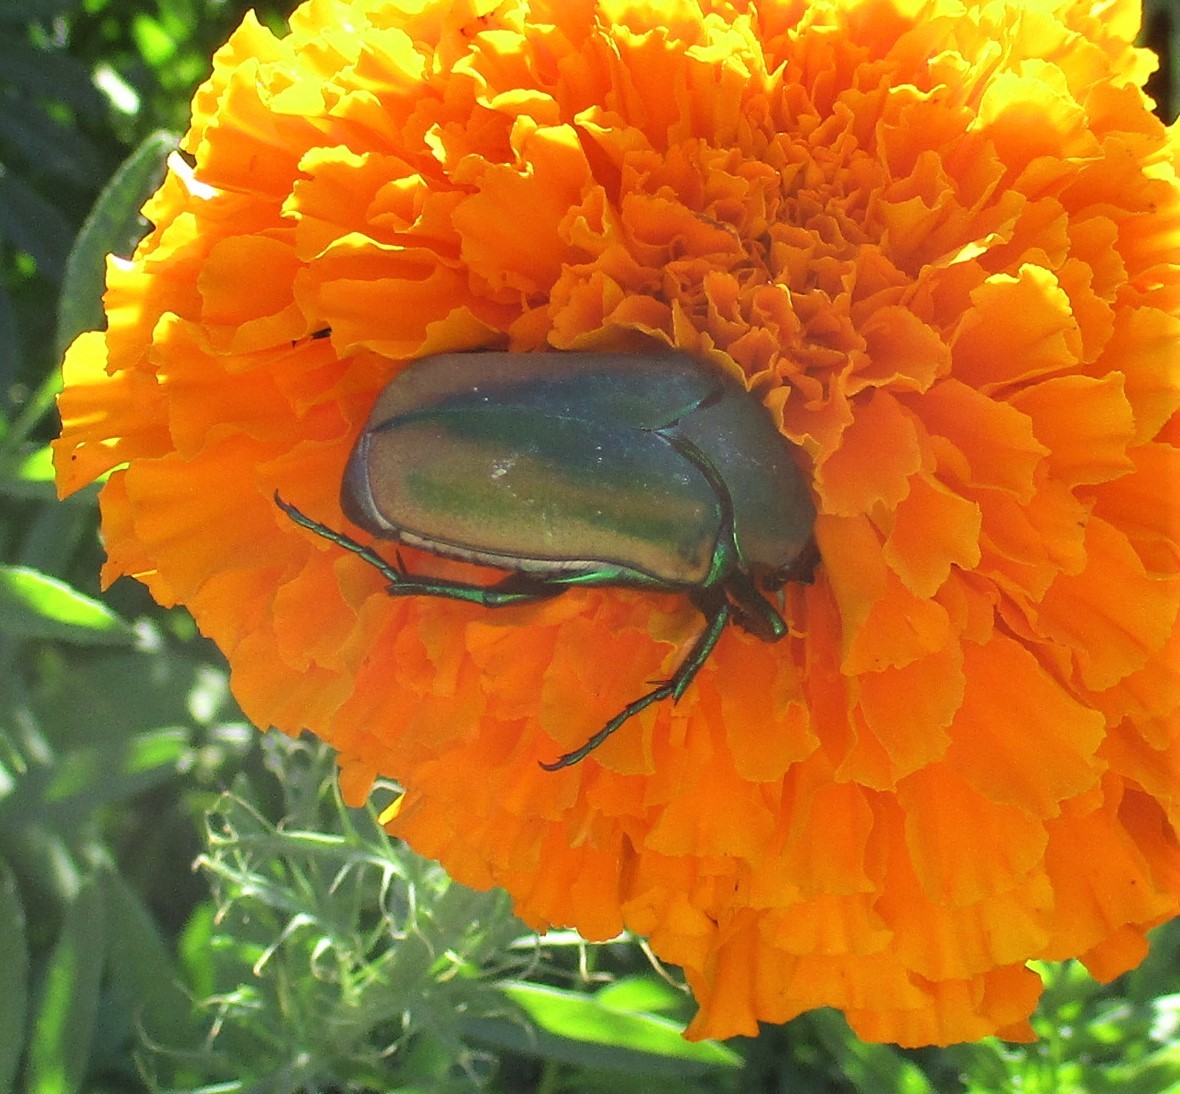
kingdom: Animalia
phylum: Arthropoda
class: Insecta
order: Coleoptera
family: Scarabaeidae
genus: Cotinis
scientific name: Cotinis mutabilis
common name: Figeater beetle
